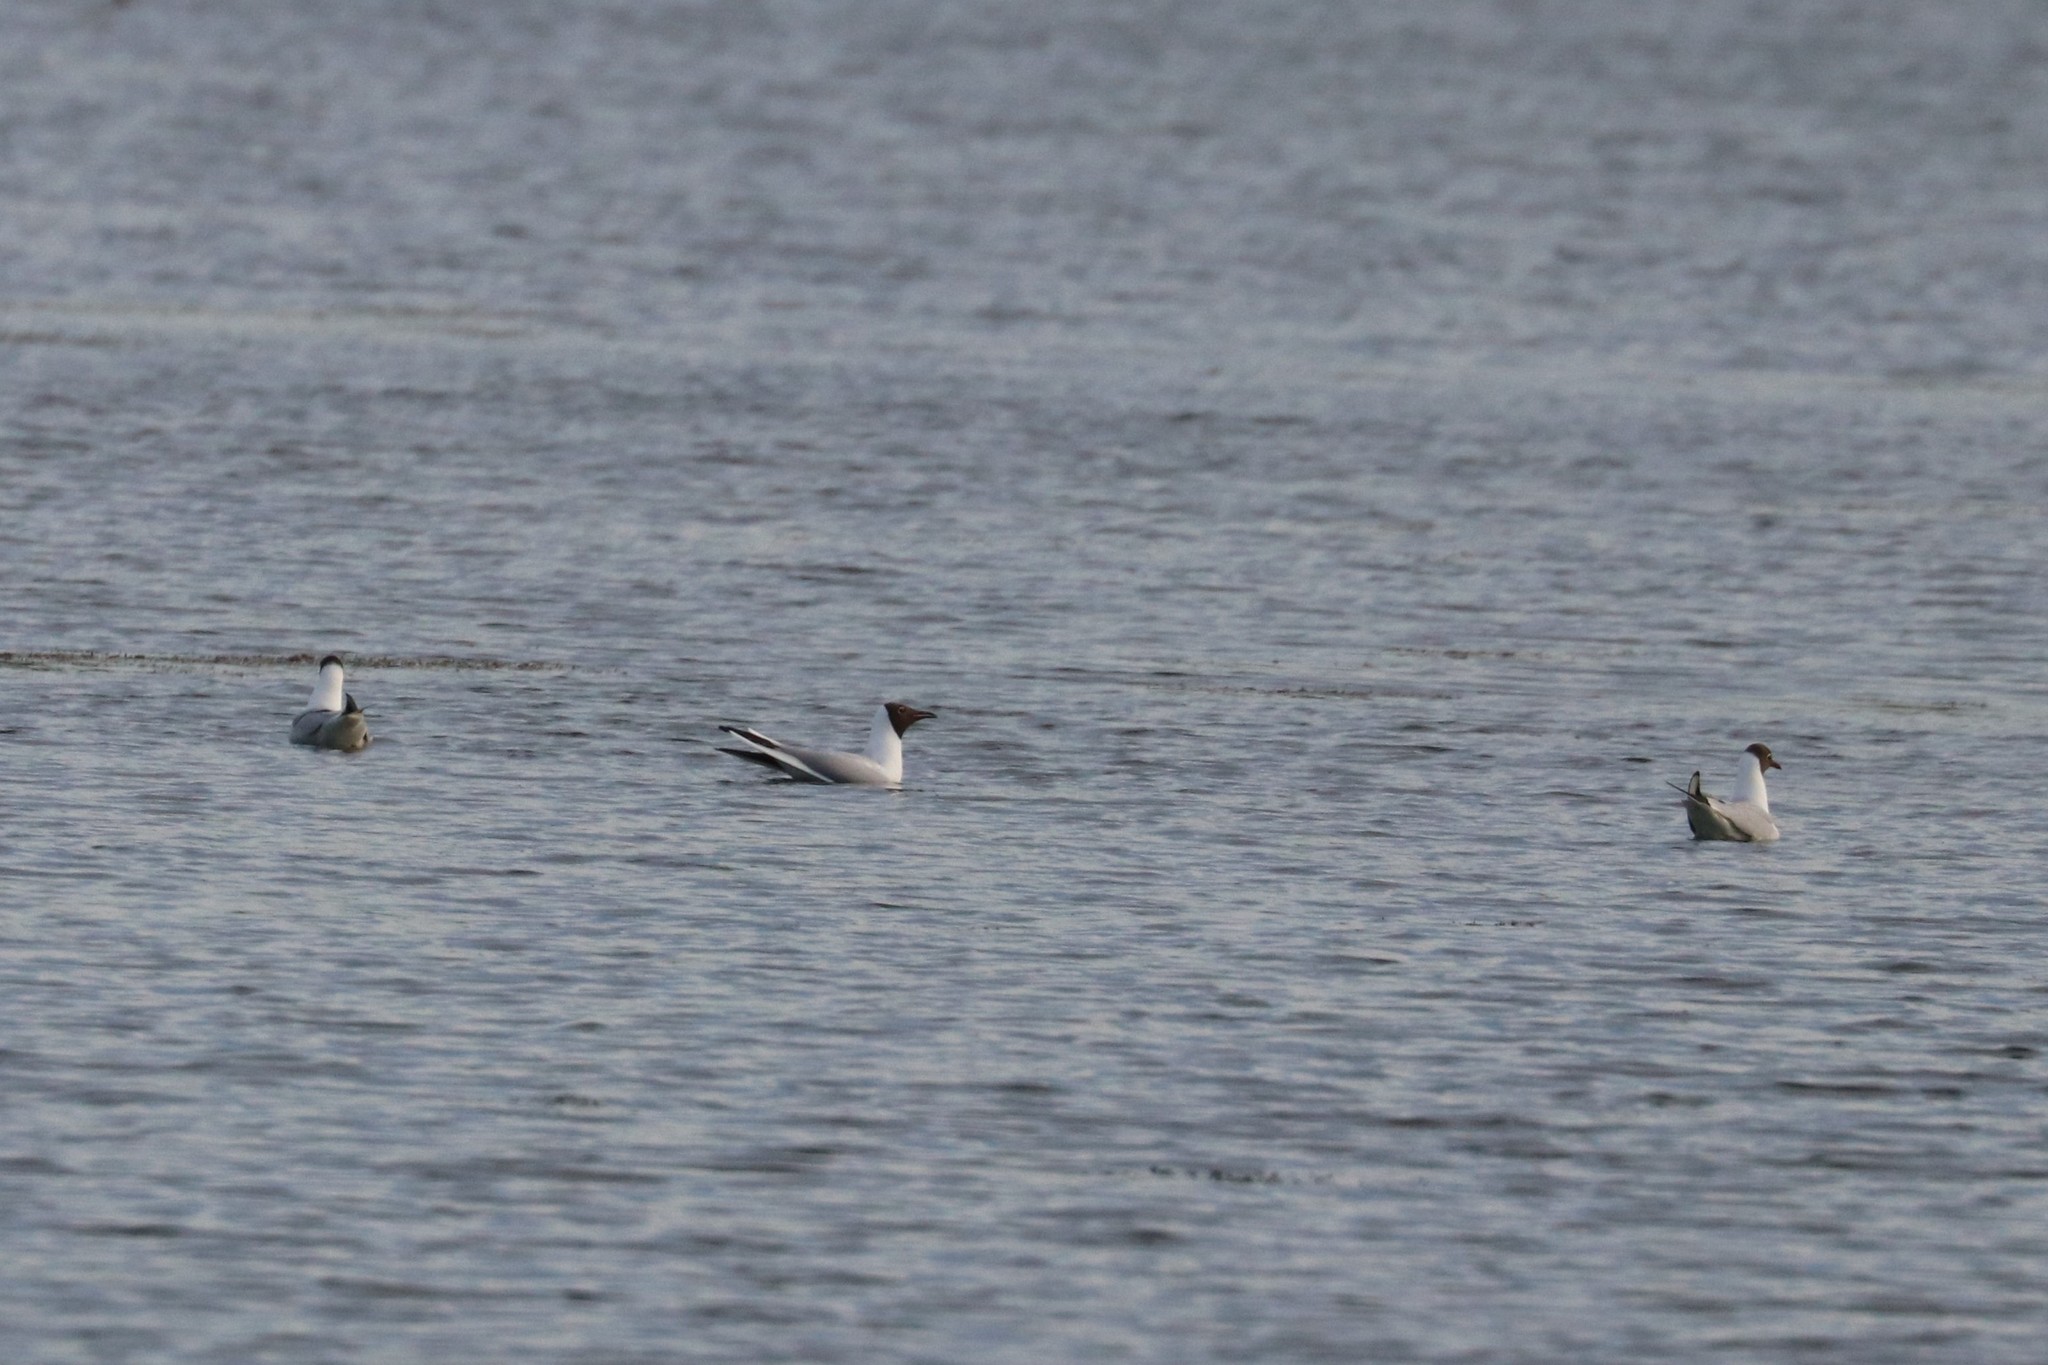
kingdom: Animalia
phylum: Chordata
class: Aves
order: Charadriiformes
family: Laridae
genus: Chroicocephalus
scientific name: Chroicocephalus ridibundus
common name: Black-headed gull
